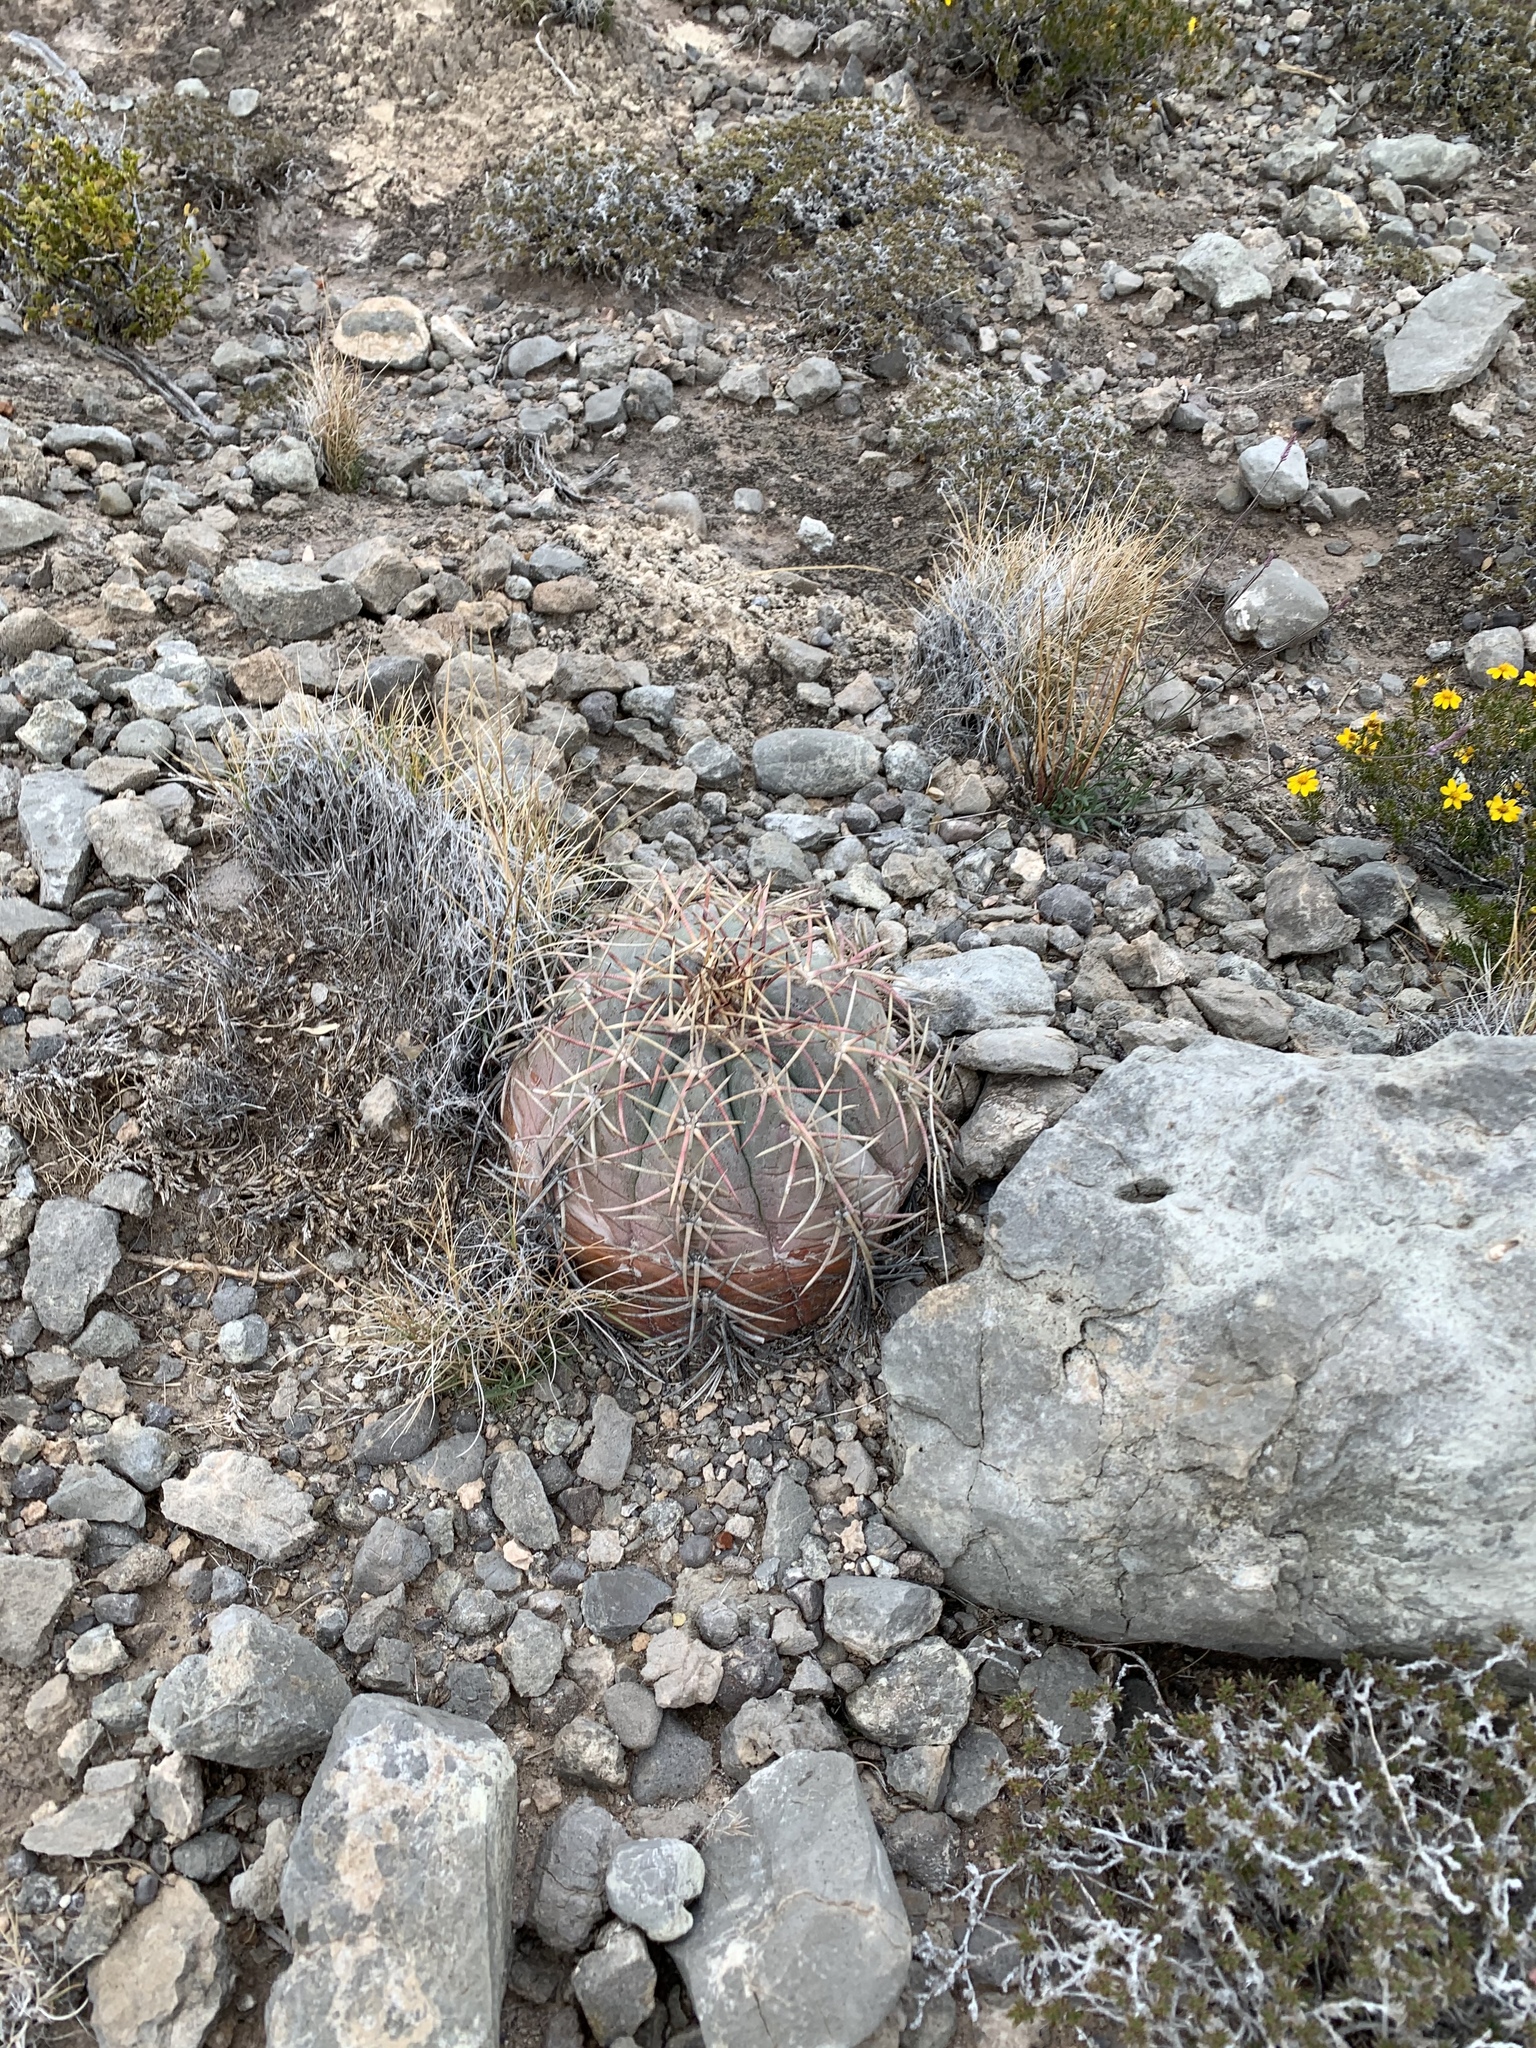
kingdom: Plantae
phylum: Tracheophyta
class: Magnoliopsida
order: Caryophyllales
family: Cactaceae
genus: Echinocactus
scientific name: Echinocactus horizonthalonius
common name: Devilshead
